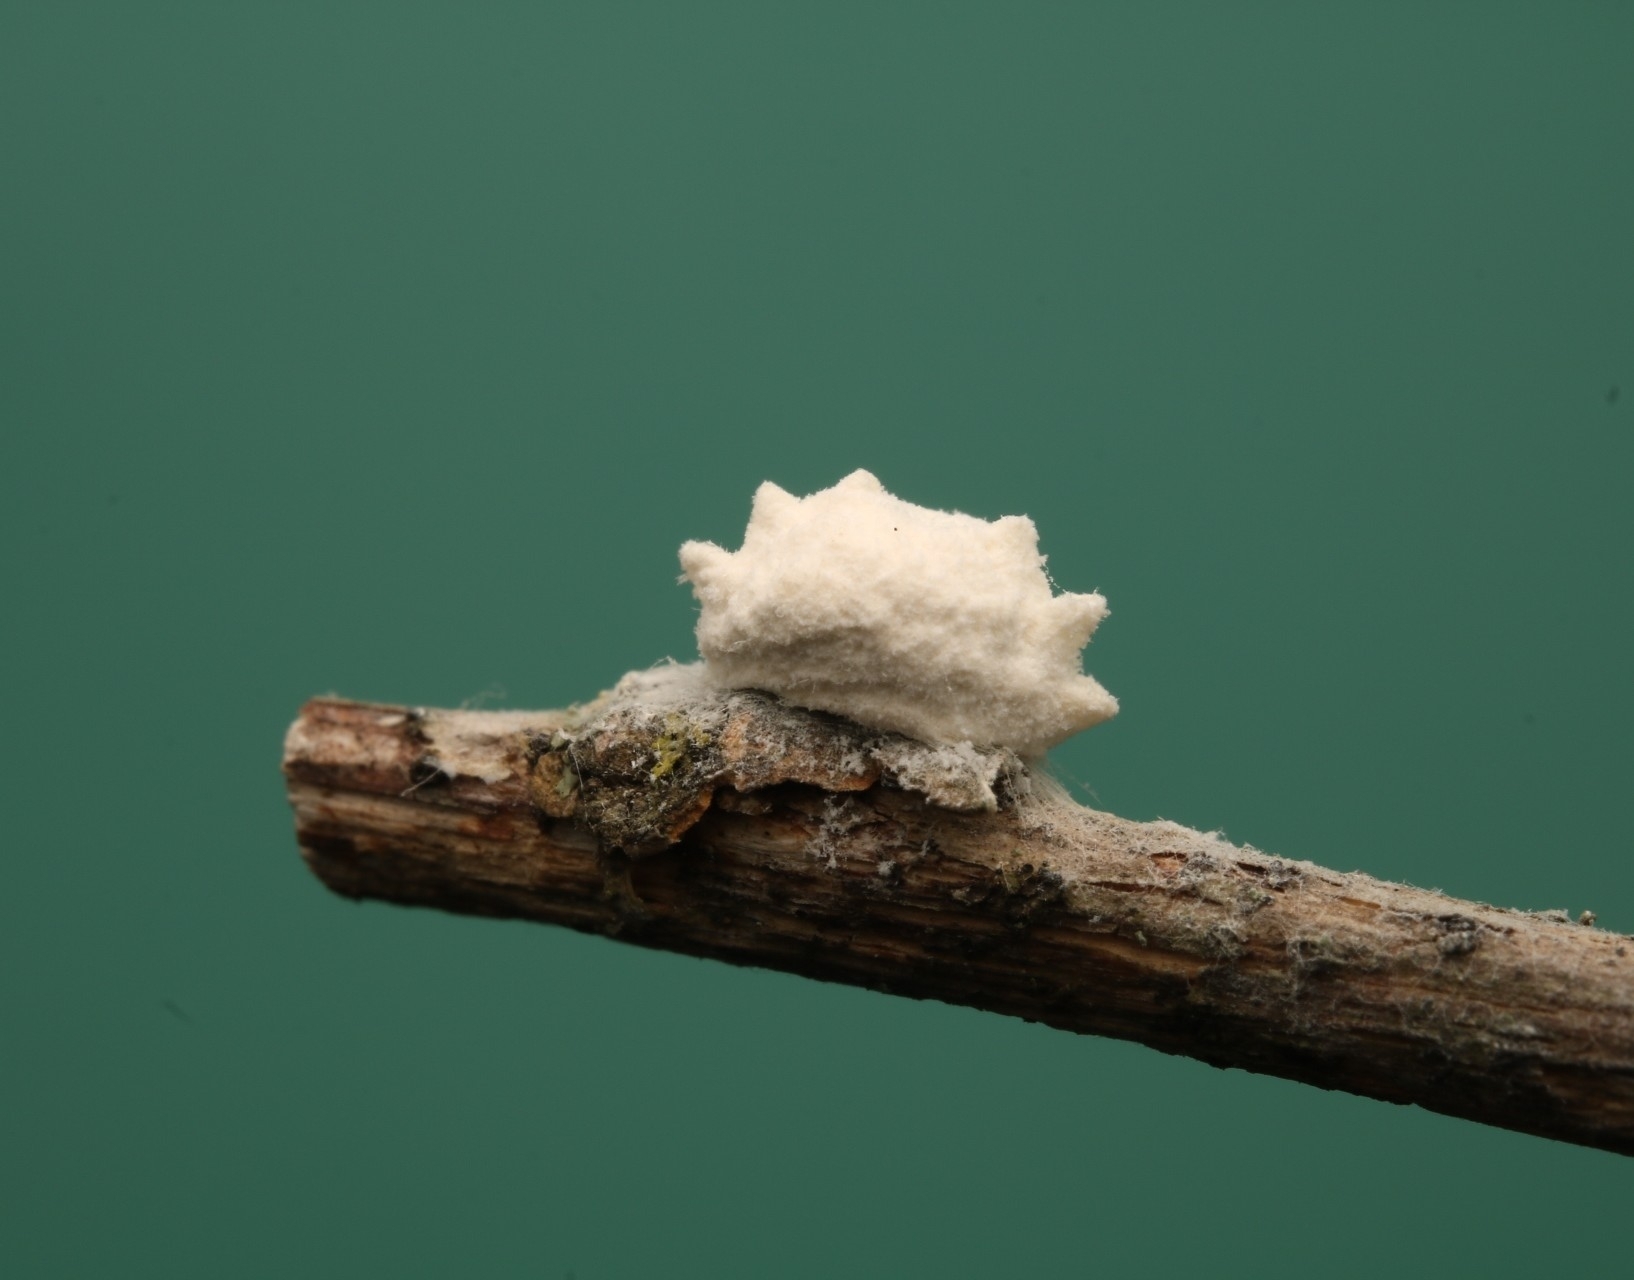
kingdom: Animalia
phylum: Arthropoda
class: Insecta
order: Lepidoptera
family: Epipyropidae
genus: Fulgoraecia
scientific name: Fulgoraecia exigua
